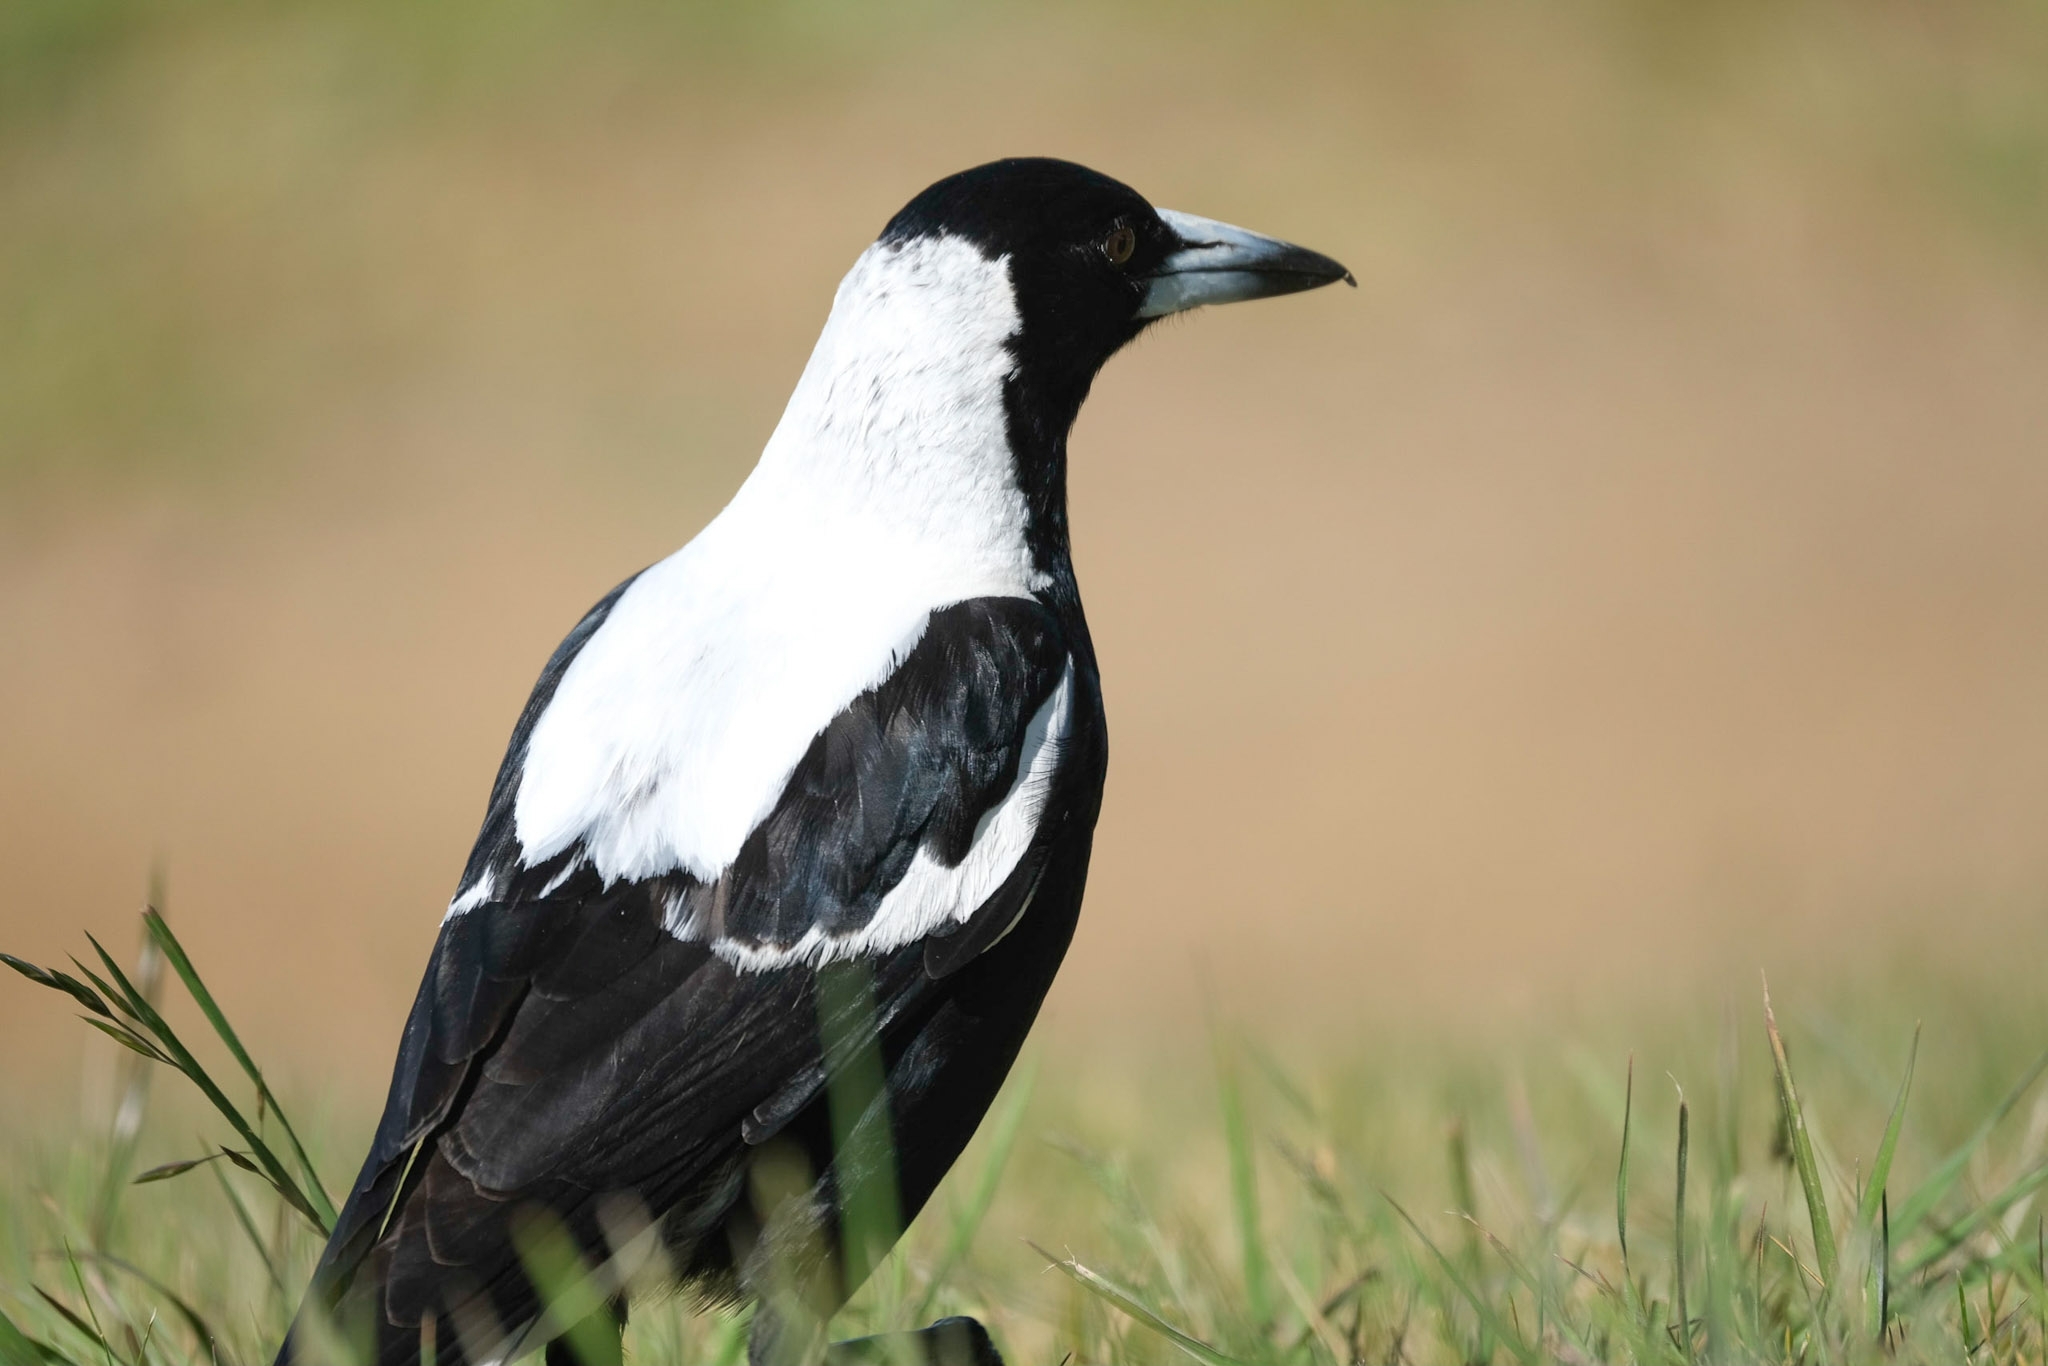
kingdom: Animalia
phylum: Chordata
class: Aves
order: Passeriformes
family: Cracticidae
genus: Gymnorhina
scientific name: Gymnorhina tibicen
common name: Australian magpie
